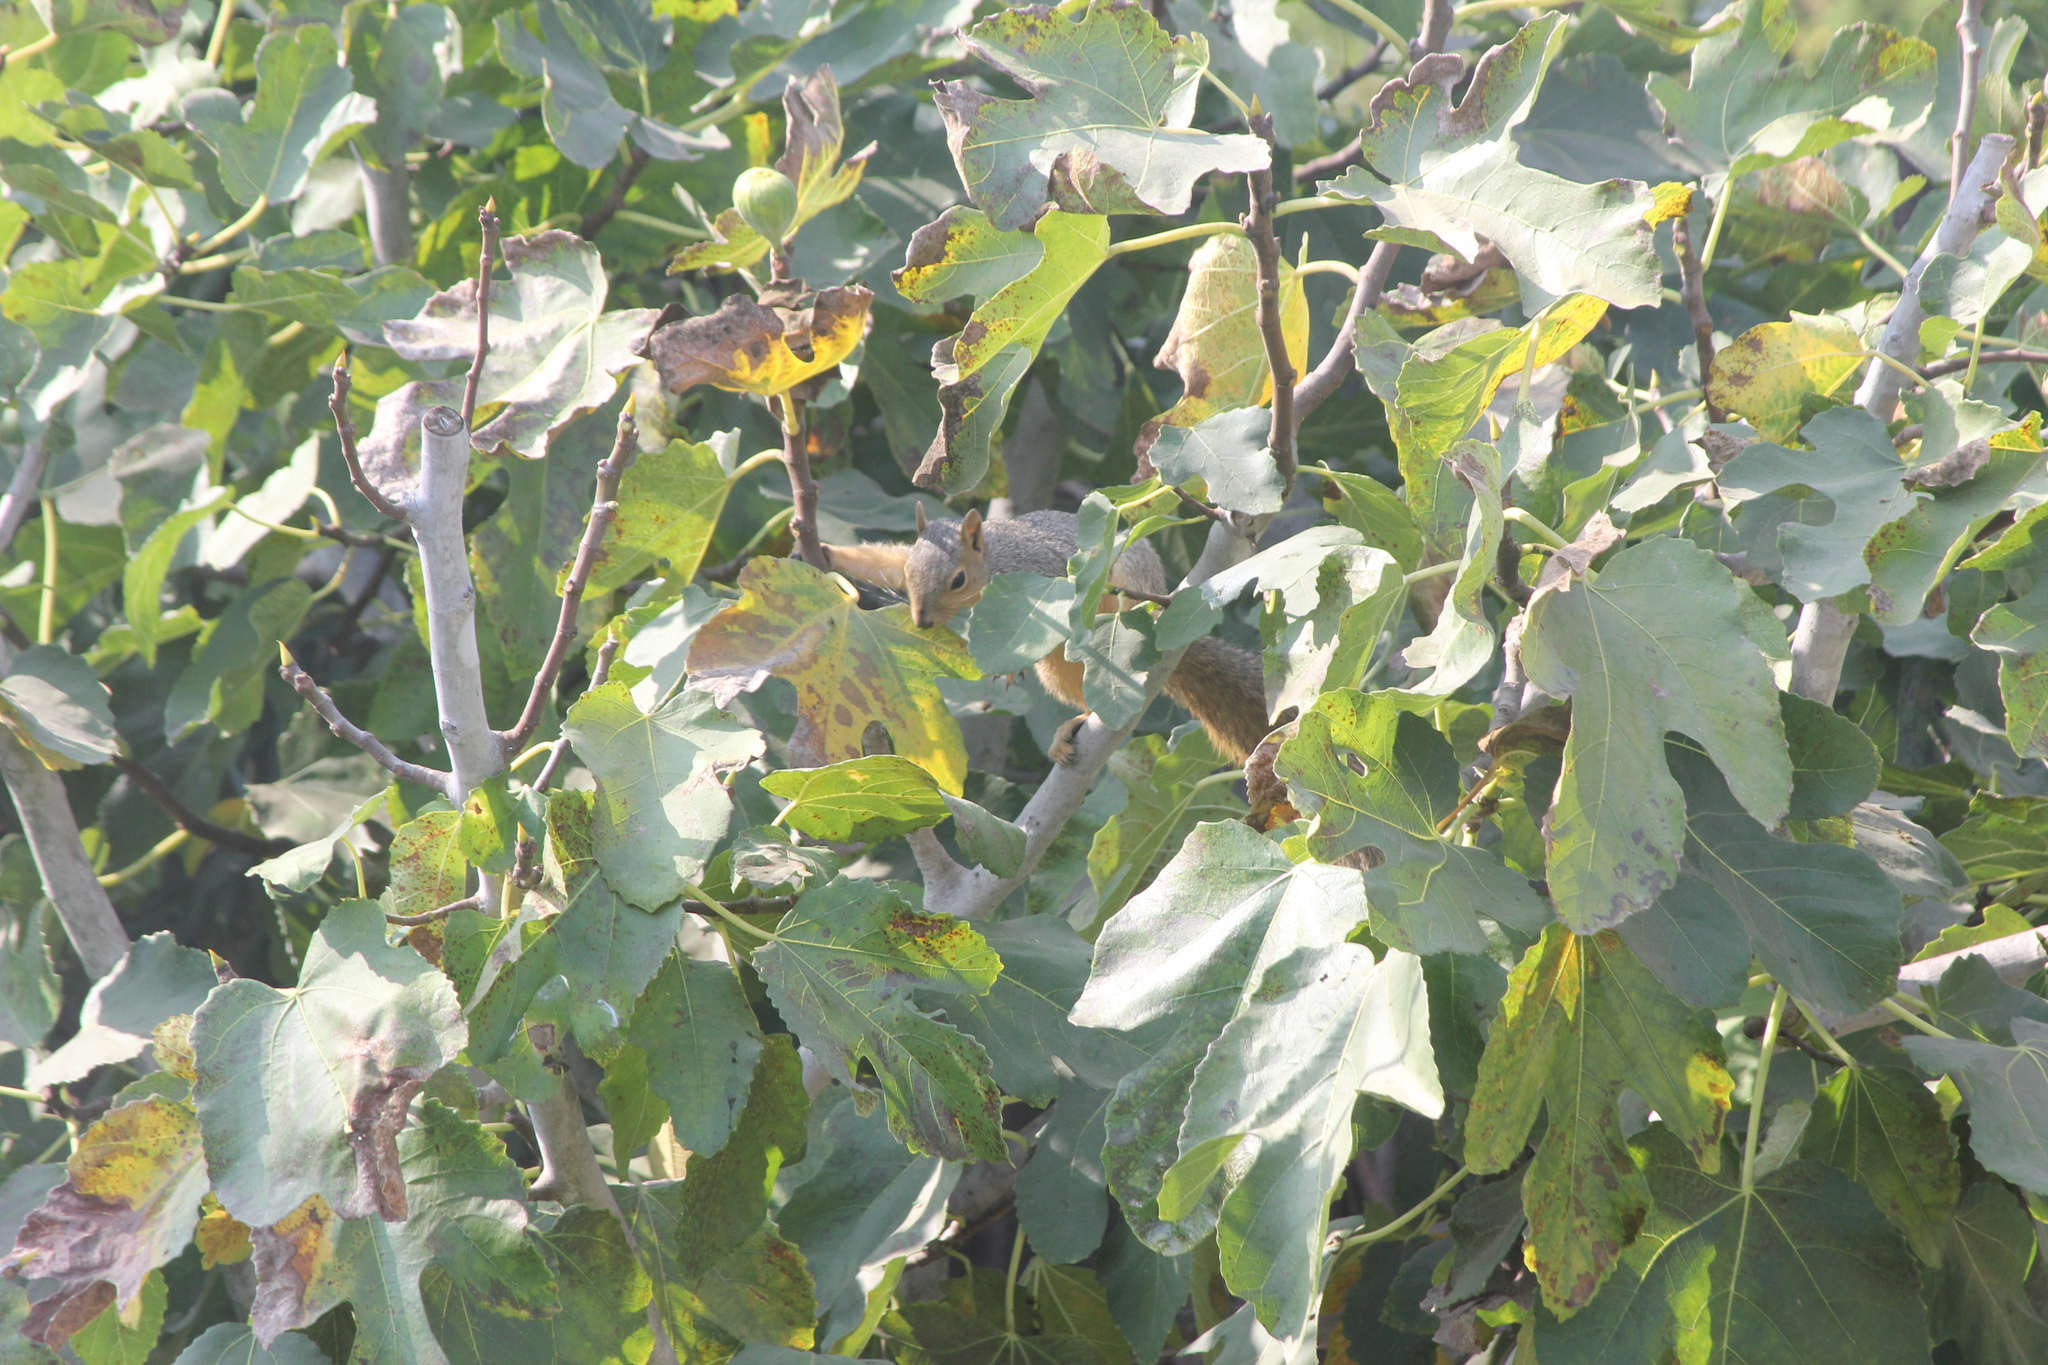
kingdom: Animalia
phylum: Chordata
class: Mammalia
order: Rodentia
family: Sciuridae
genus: Sciurus
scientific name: Sciurus niger
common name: Fox squirrel
